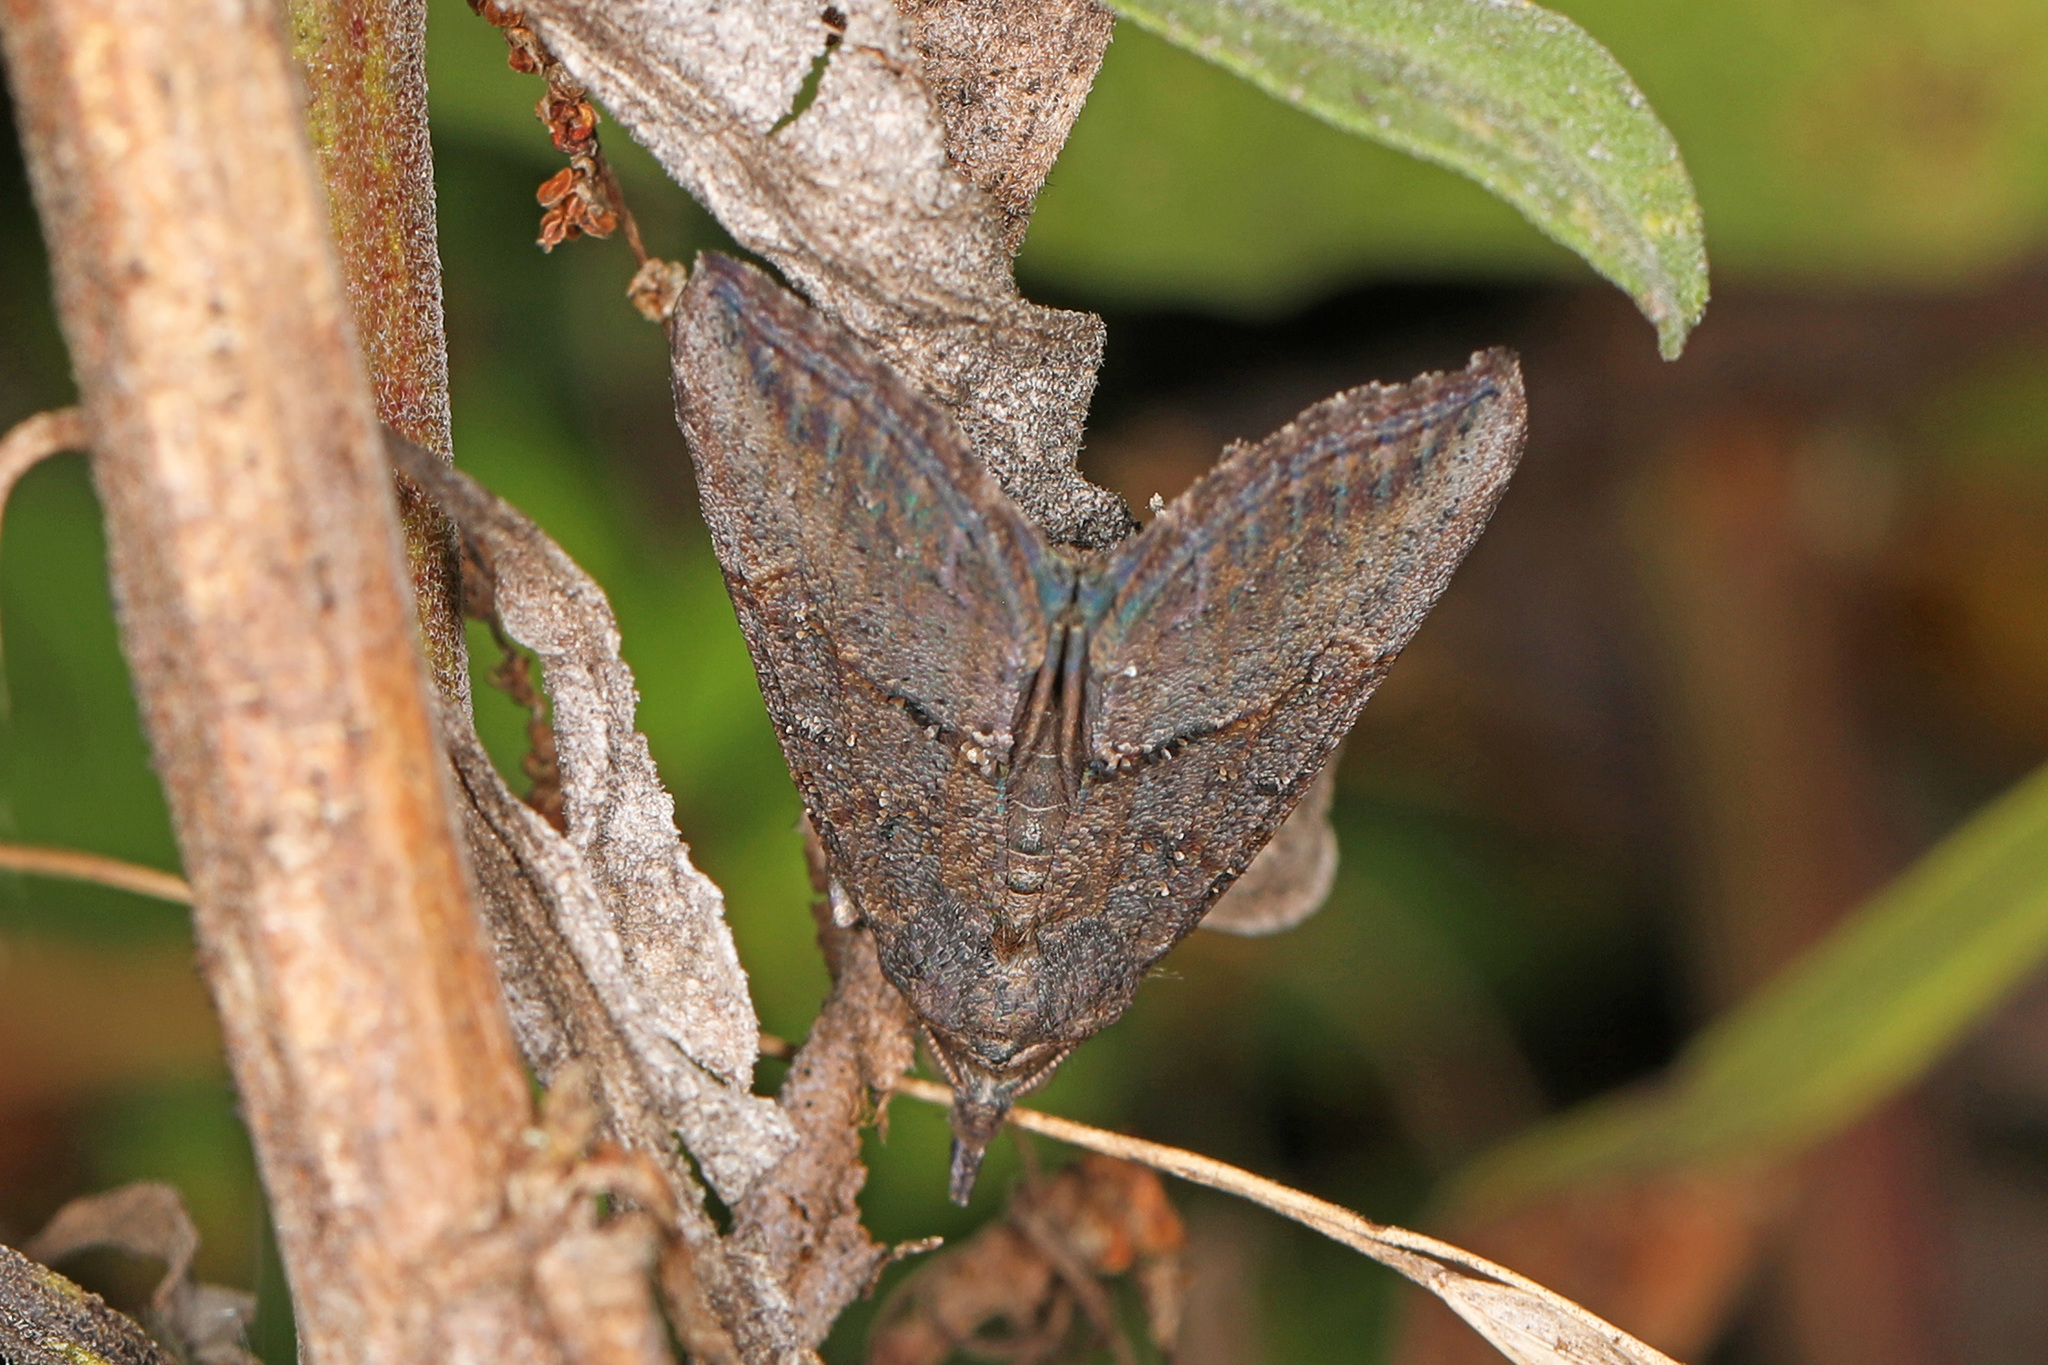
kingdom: Animalia
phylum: Arthropoda
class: Insecta
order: Lepidoptera
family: Erebidae
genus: Hypena
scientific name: Hypena scabra
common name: Green cloverworm
